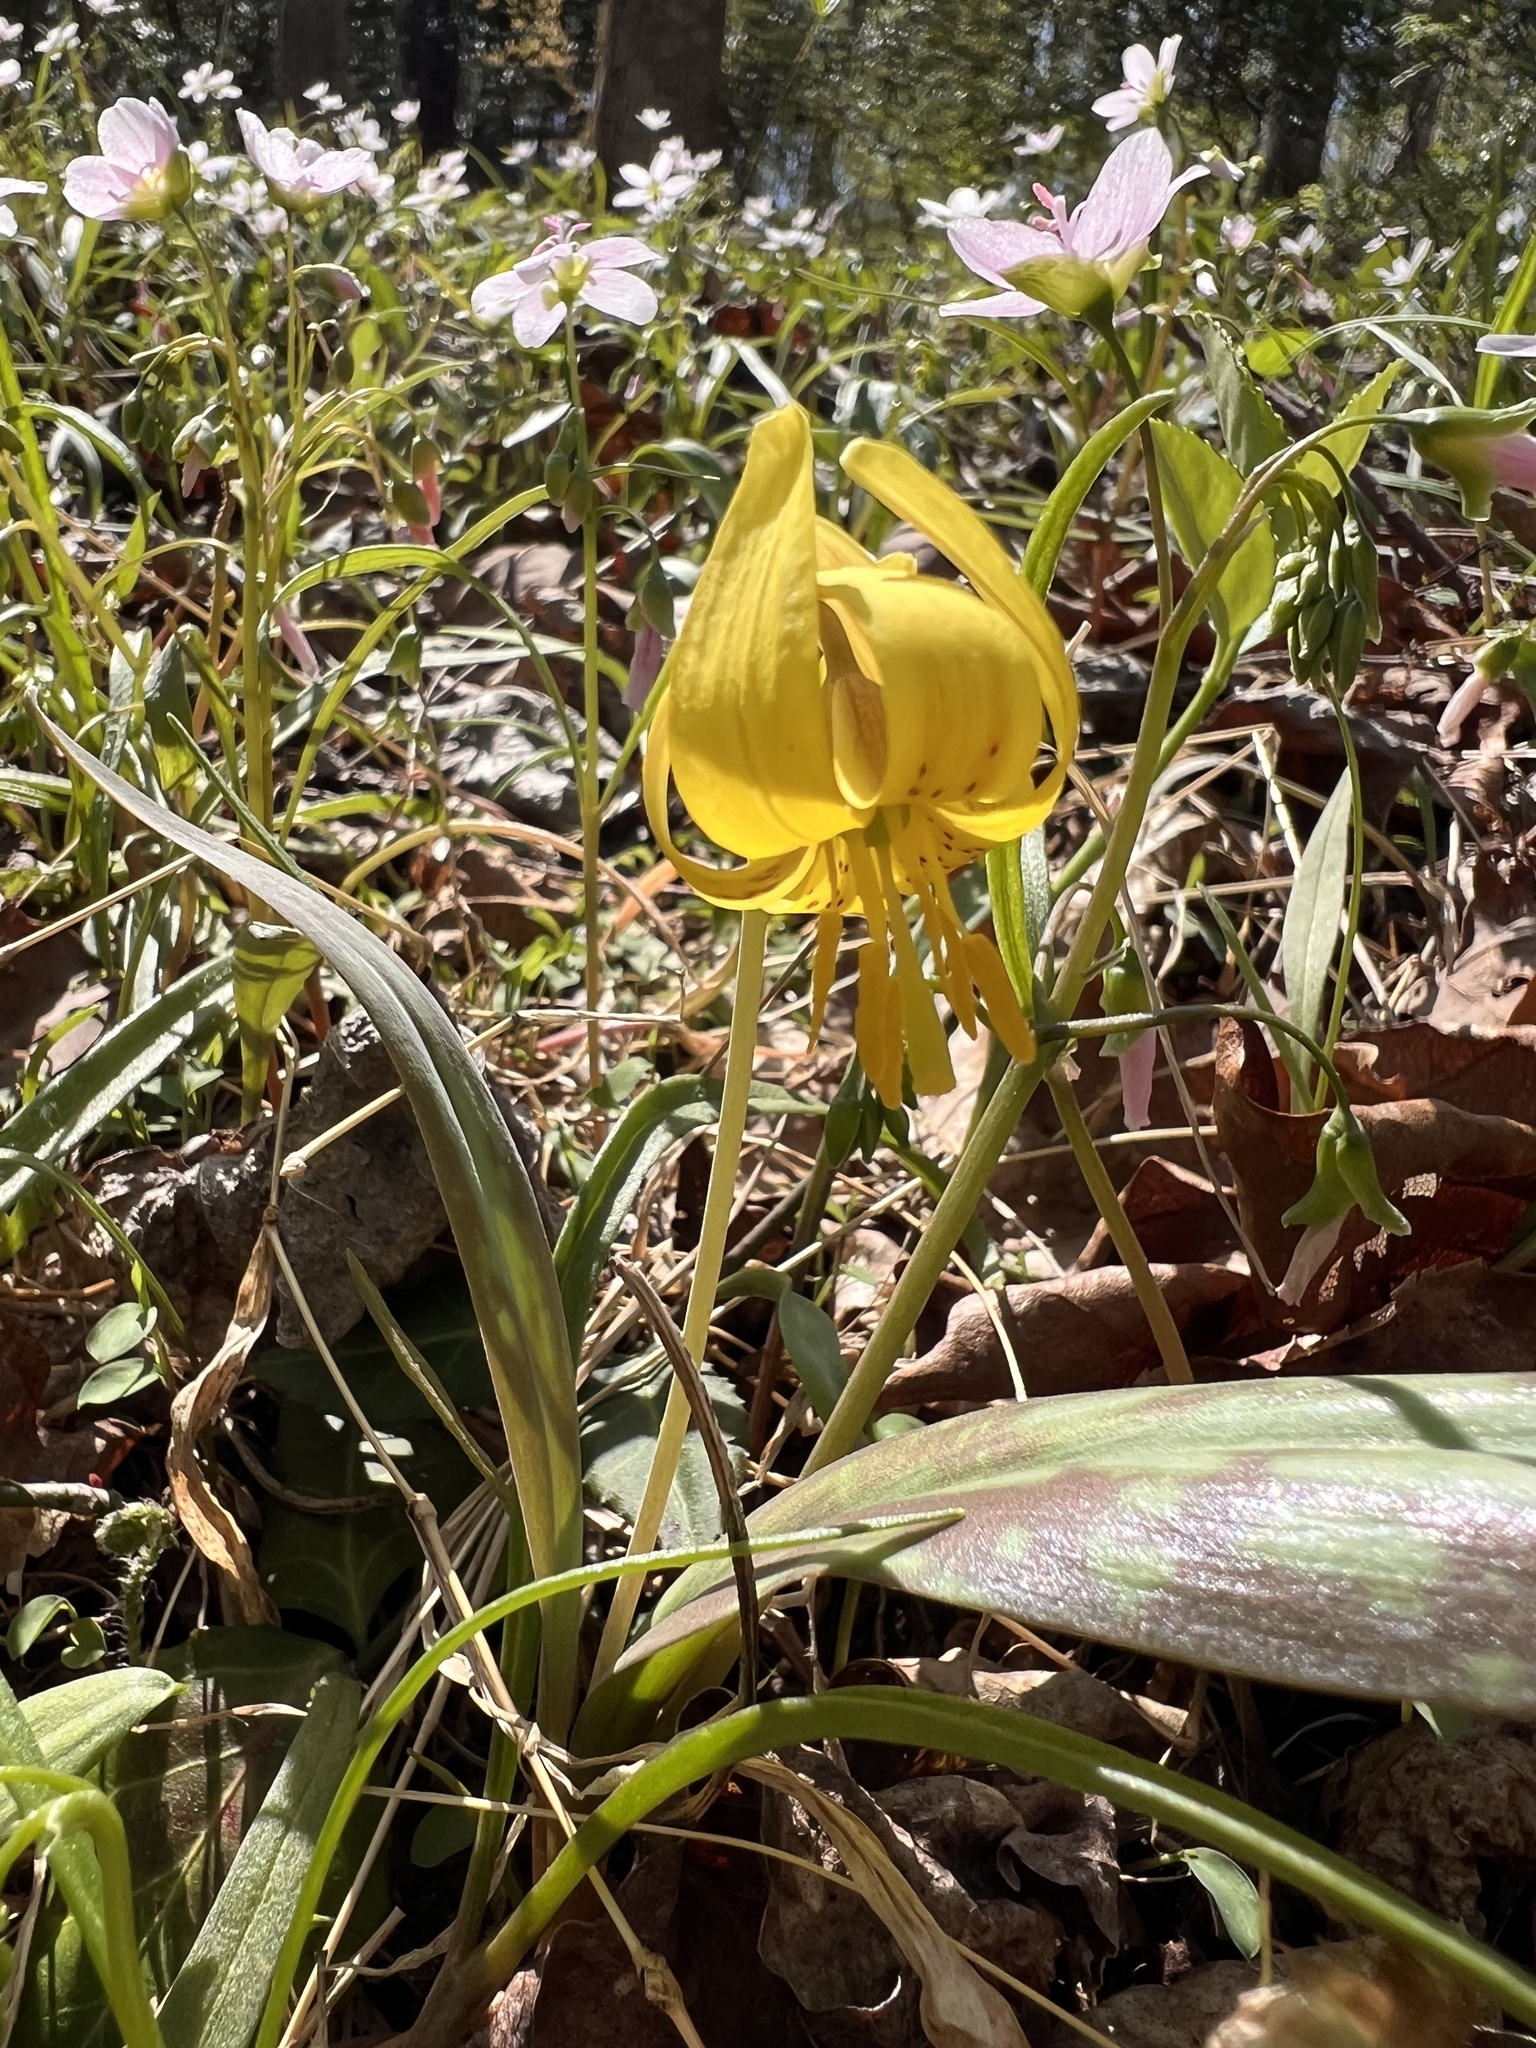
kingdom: Plantae
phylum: Tracheophyta
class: Liliopsida
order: Liliales
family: Liliaceae
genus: Erythronium
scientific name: Erythronium americanum
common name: Yellow adder's-tongue
